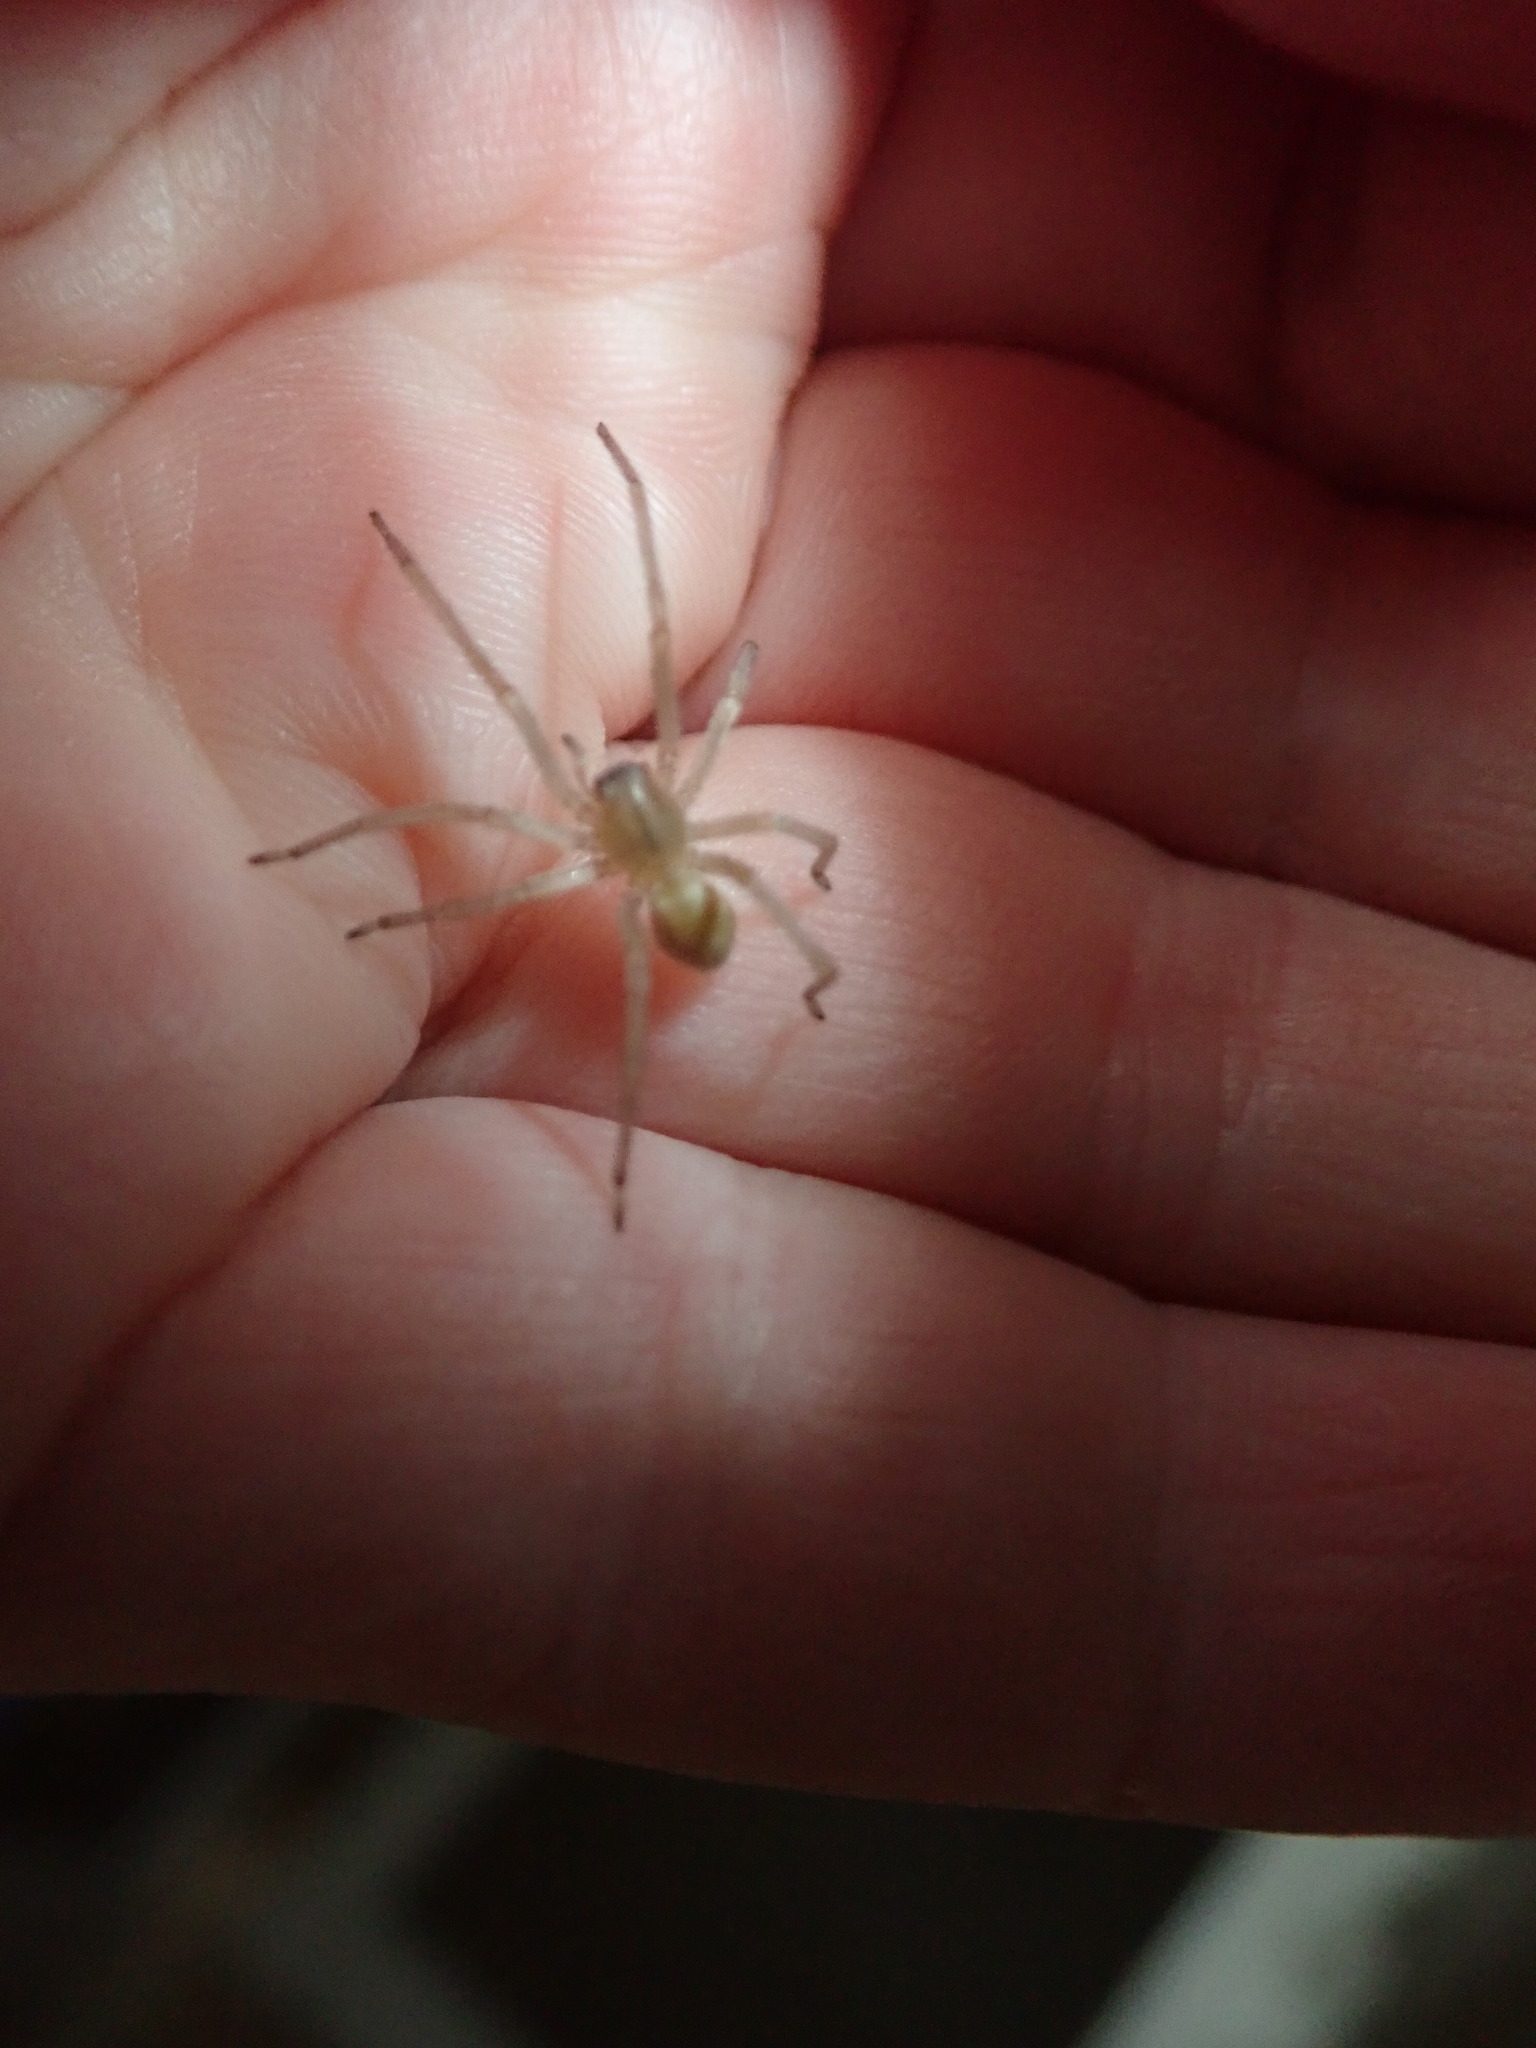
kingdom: Animalia
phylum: Arthropoda
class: Arachnida
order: Araneae
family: Cheiracanthiidae
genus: Cheiracanthium
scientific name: Cheiracanthium
